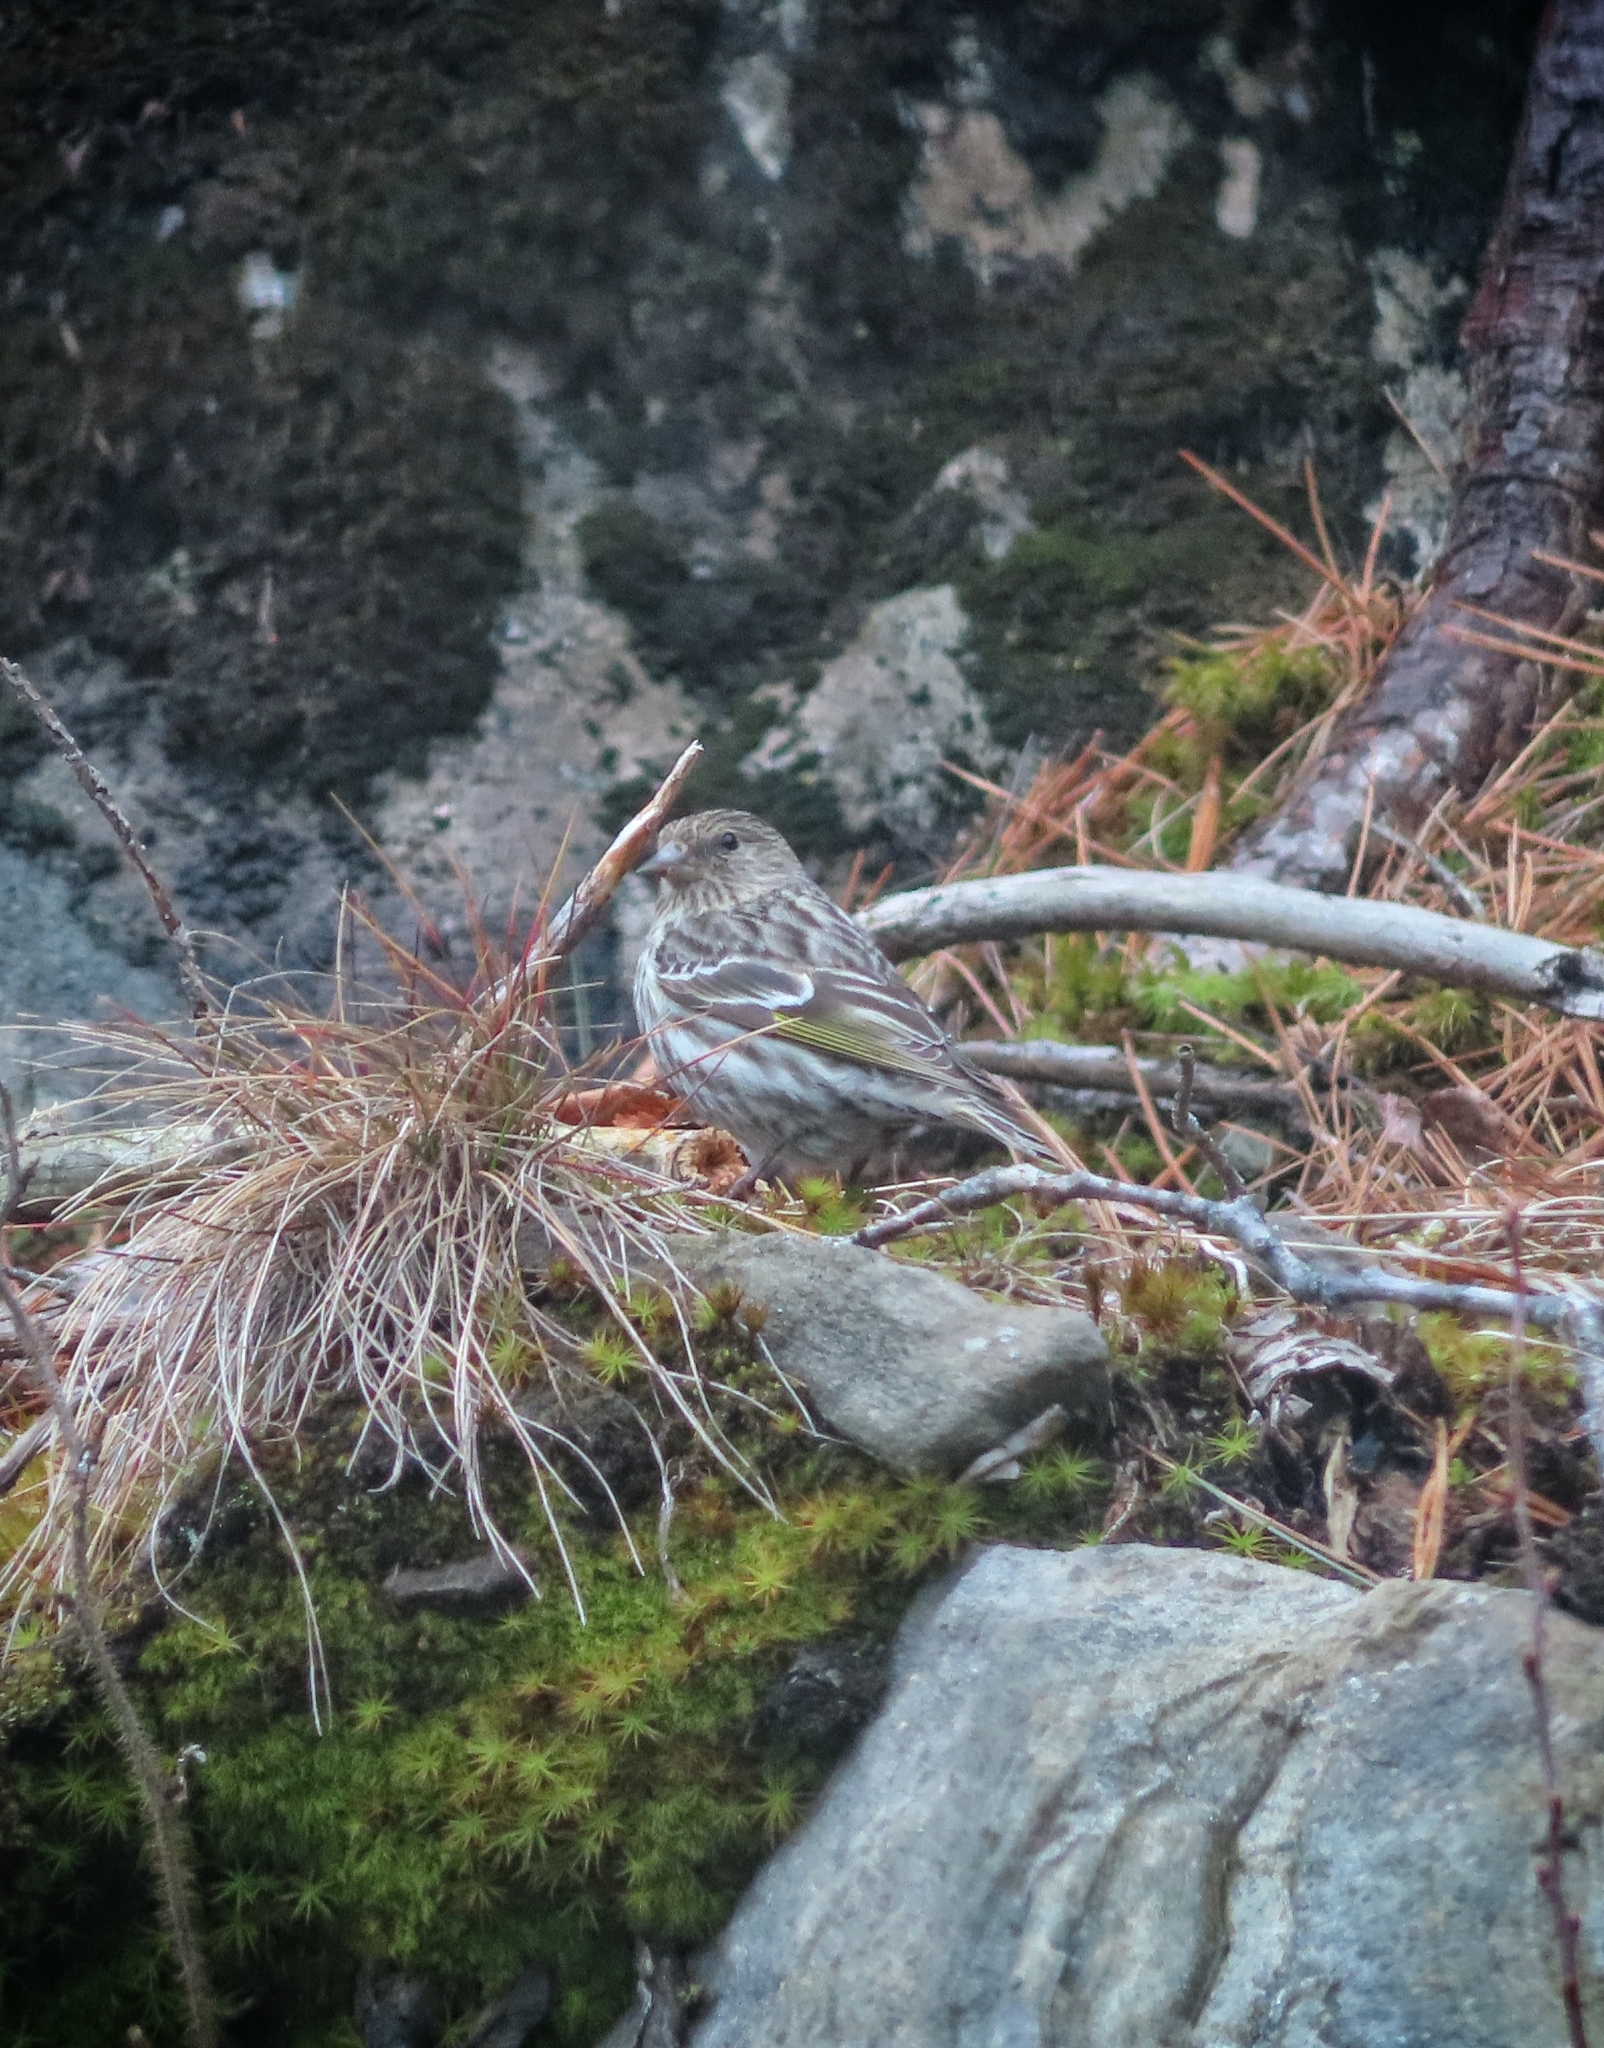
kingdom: Animalia
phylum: Chordata
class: Aves
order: Passeriformes
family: Fringillidae
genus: Spinus
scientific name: Spinus pinus
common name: Pine siskin
